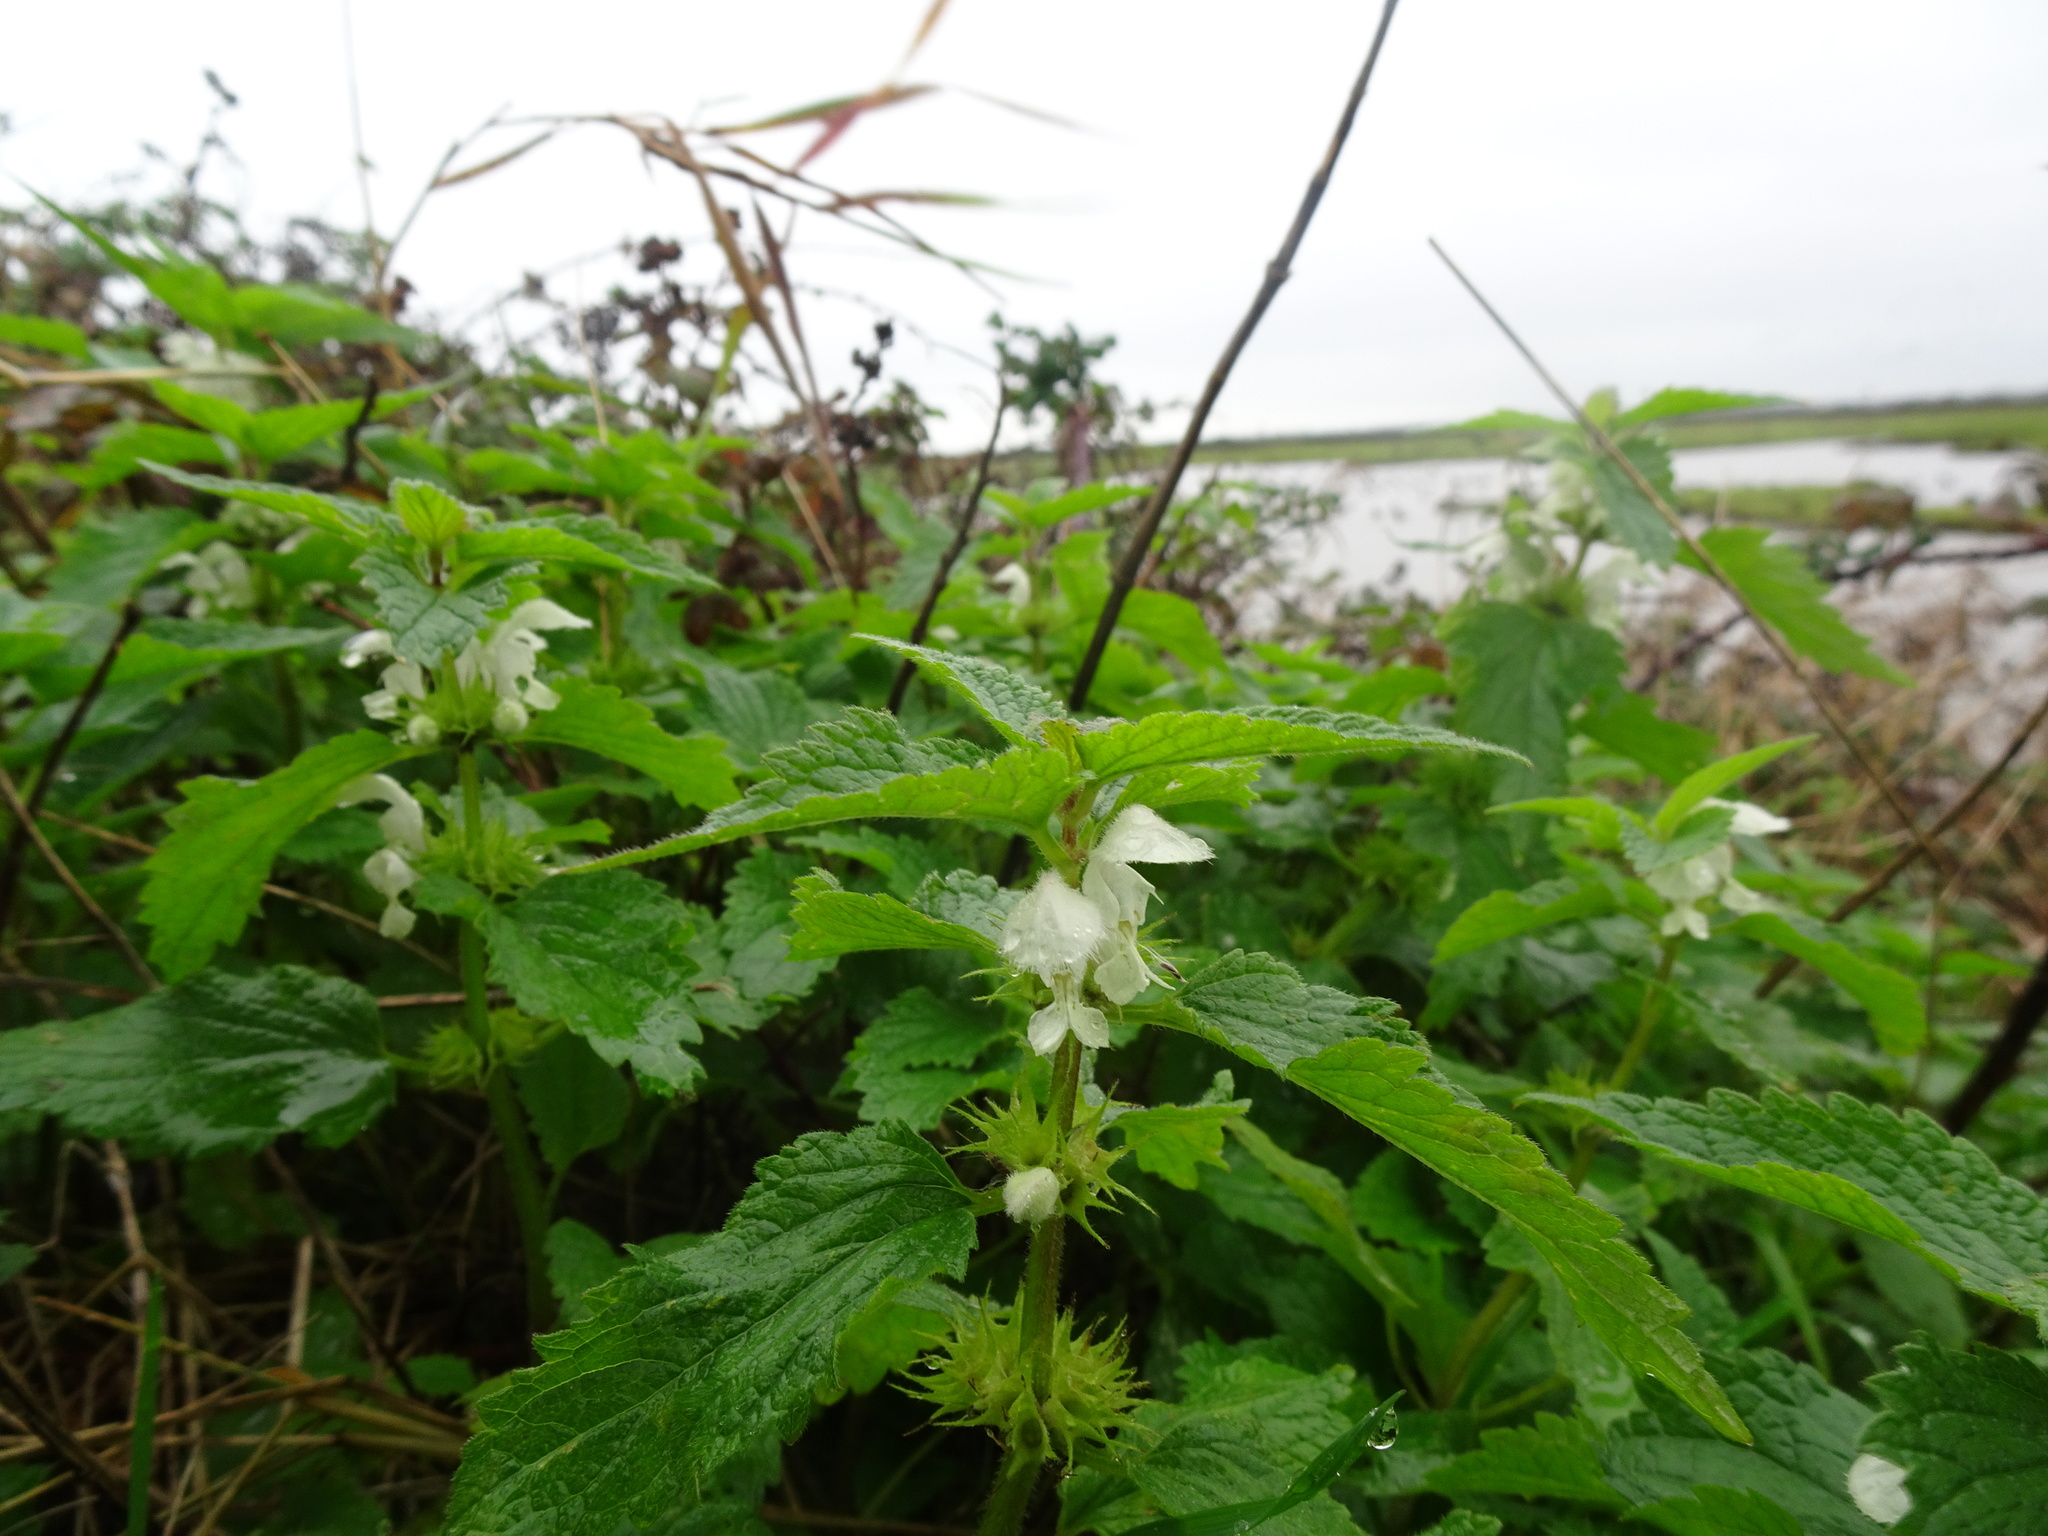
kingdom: Plantae
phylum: Tracheophyta
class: Magnoliopsida
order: Lamiales
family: Lamiaceae
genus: Lamium
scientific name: Lamium album
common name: White dead-nettle
